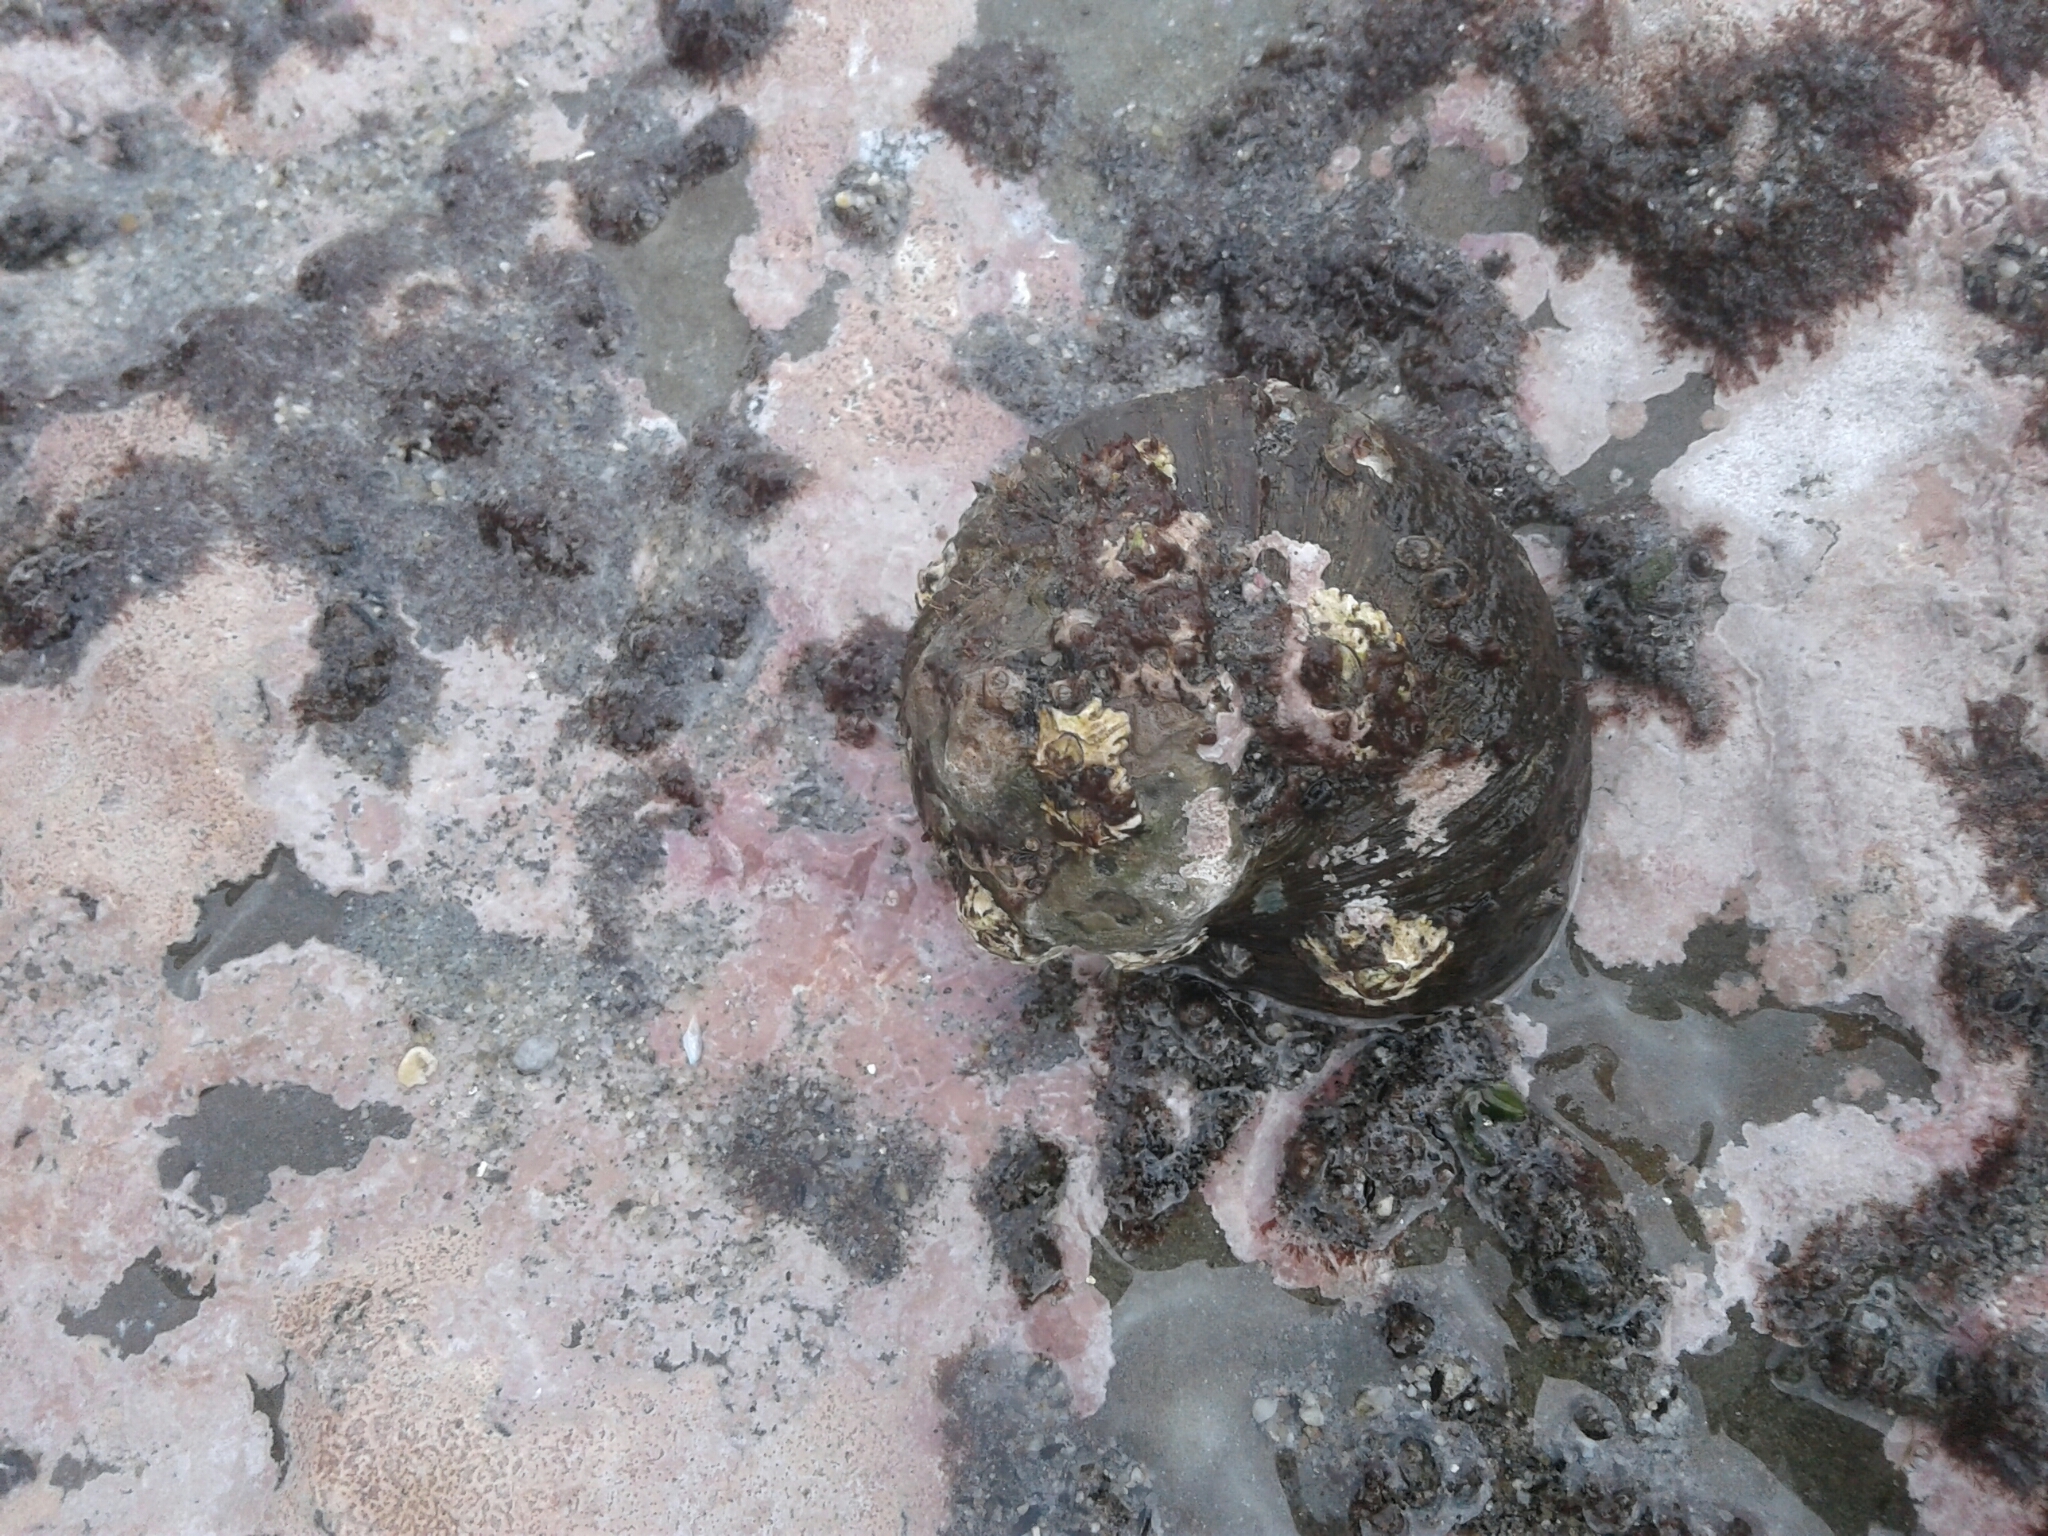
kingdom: Animalia
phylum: Mollusca
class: Gastropoda
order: Trochida
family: Turbinidae
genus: Lunella
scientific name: Lunella smaragda
